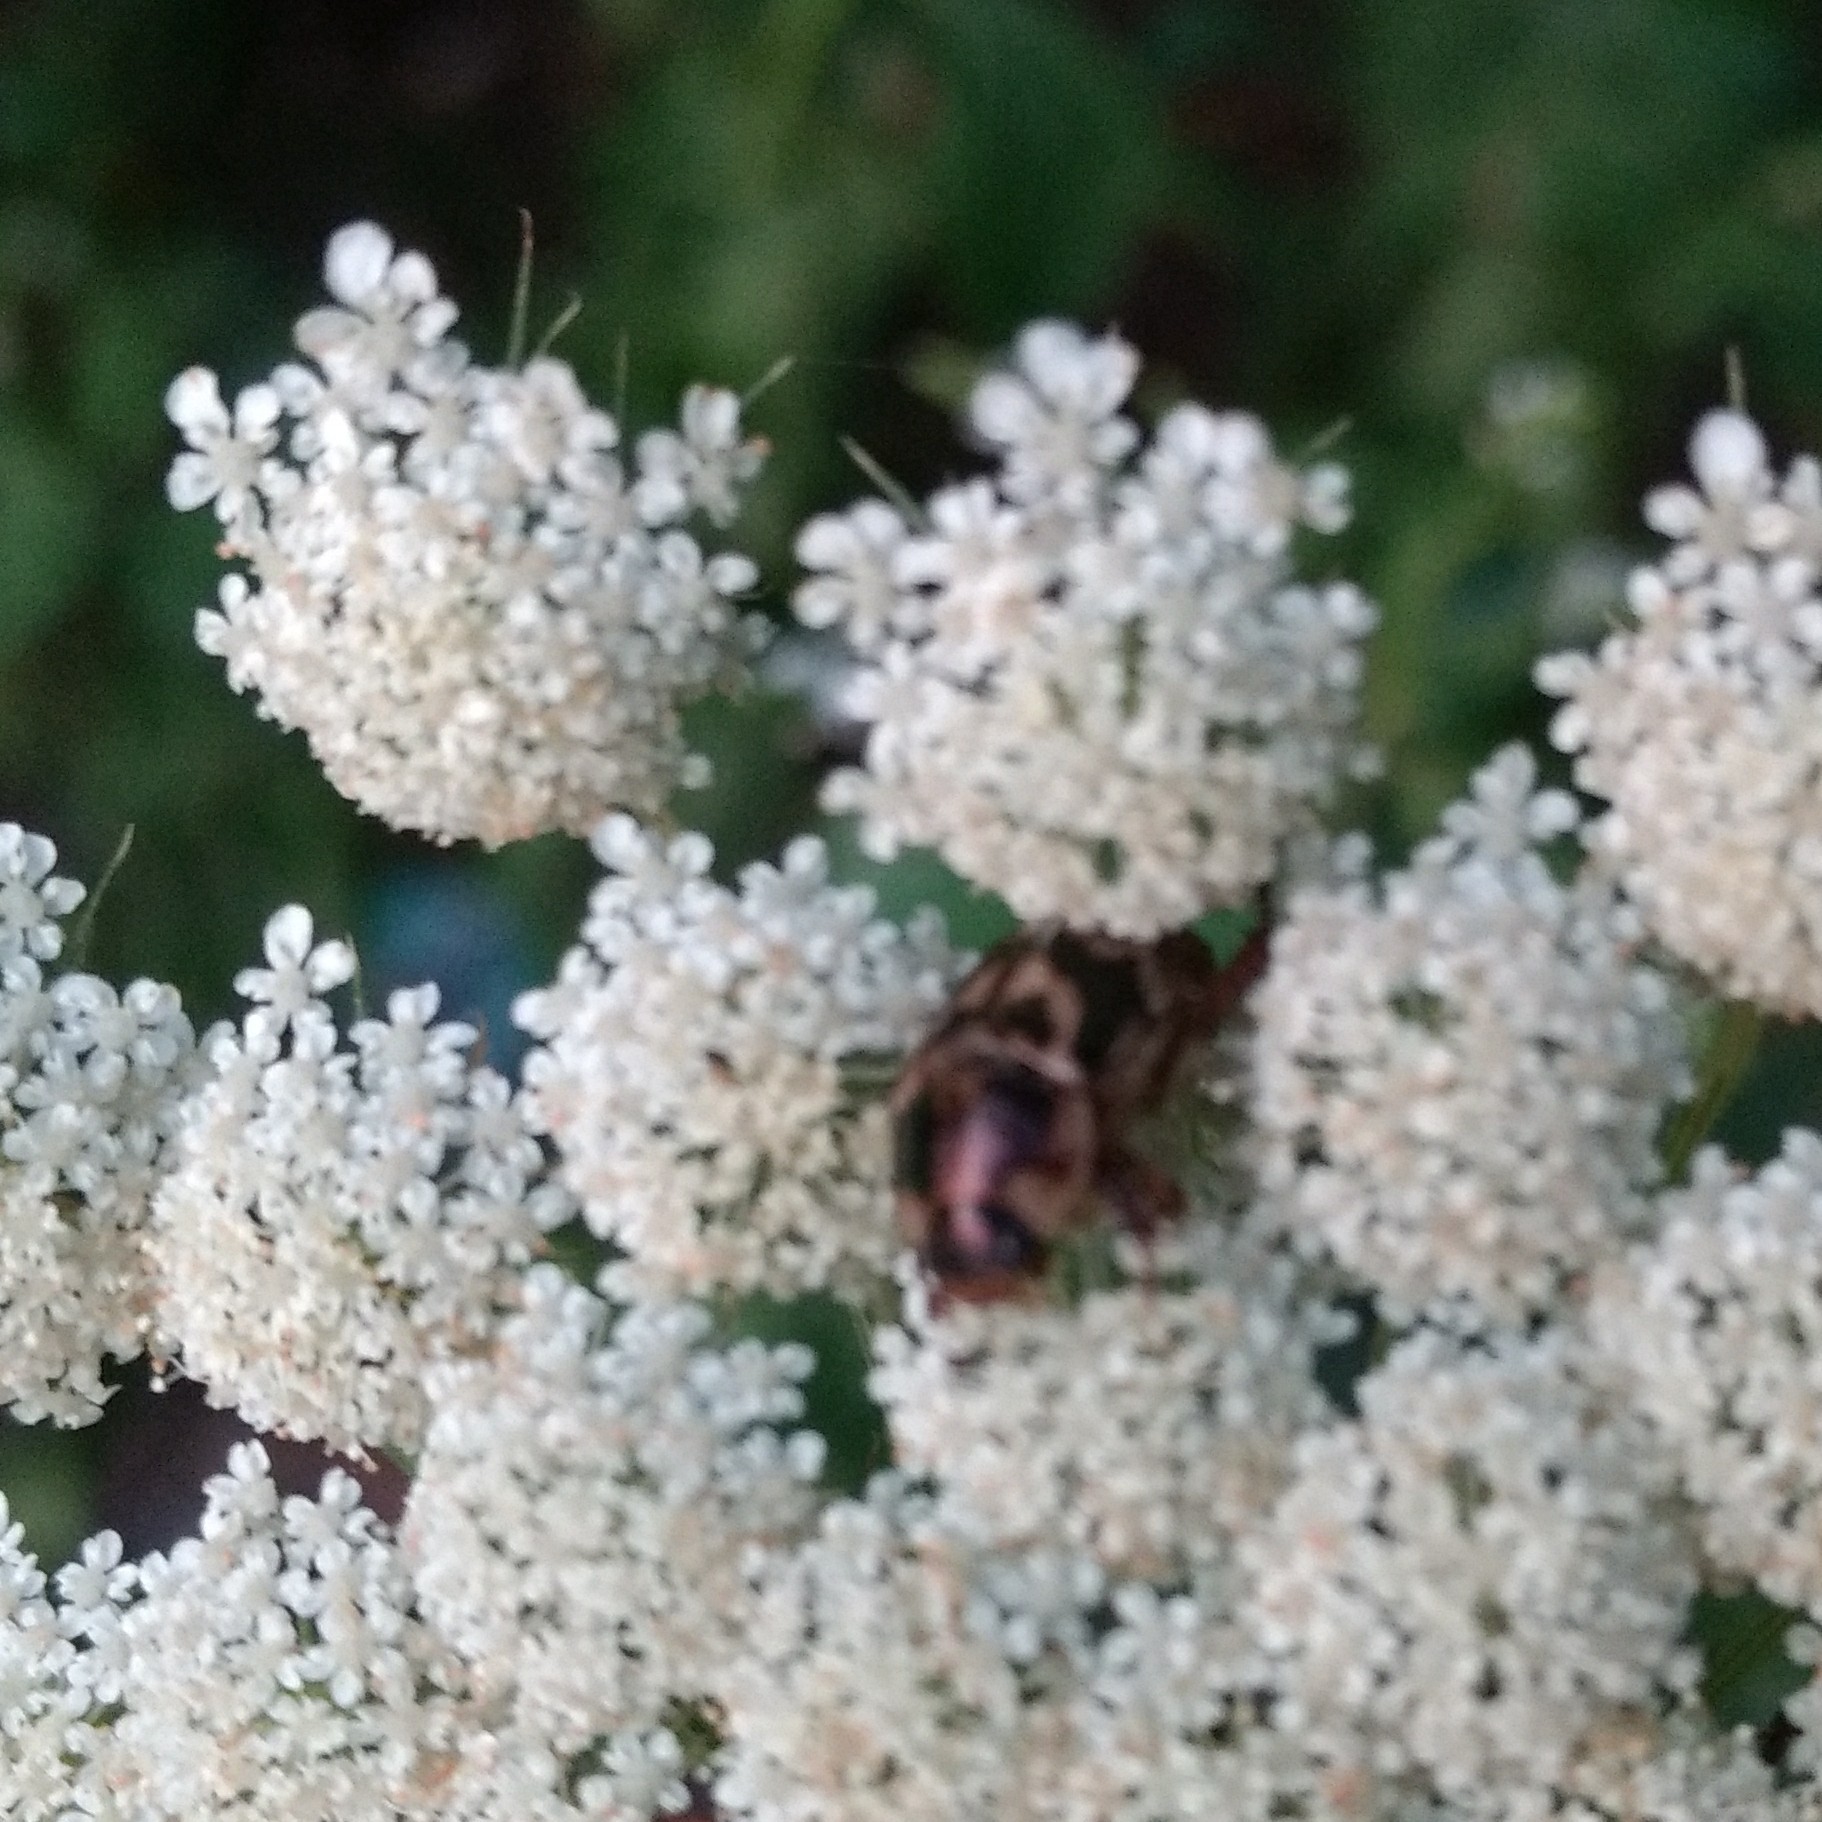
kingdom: Animalia
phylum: Arthropoda
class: Insecta
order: Coleoptera
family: Scarabaeidae
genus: Exomala
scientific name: Exomala orientalis
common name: Oriental beetle
